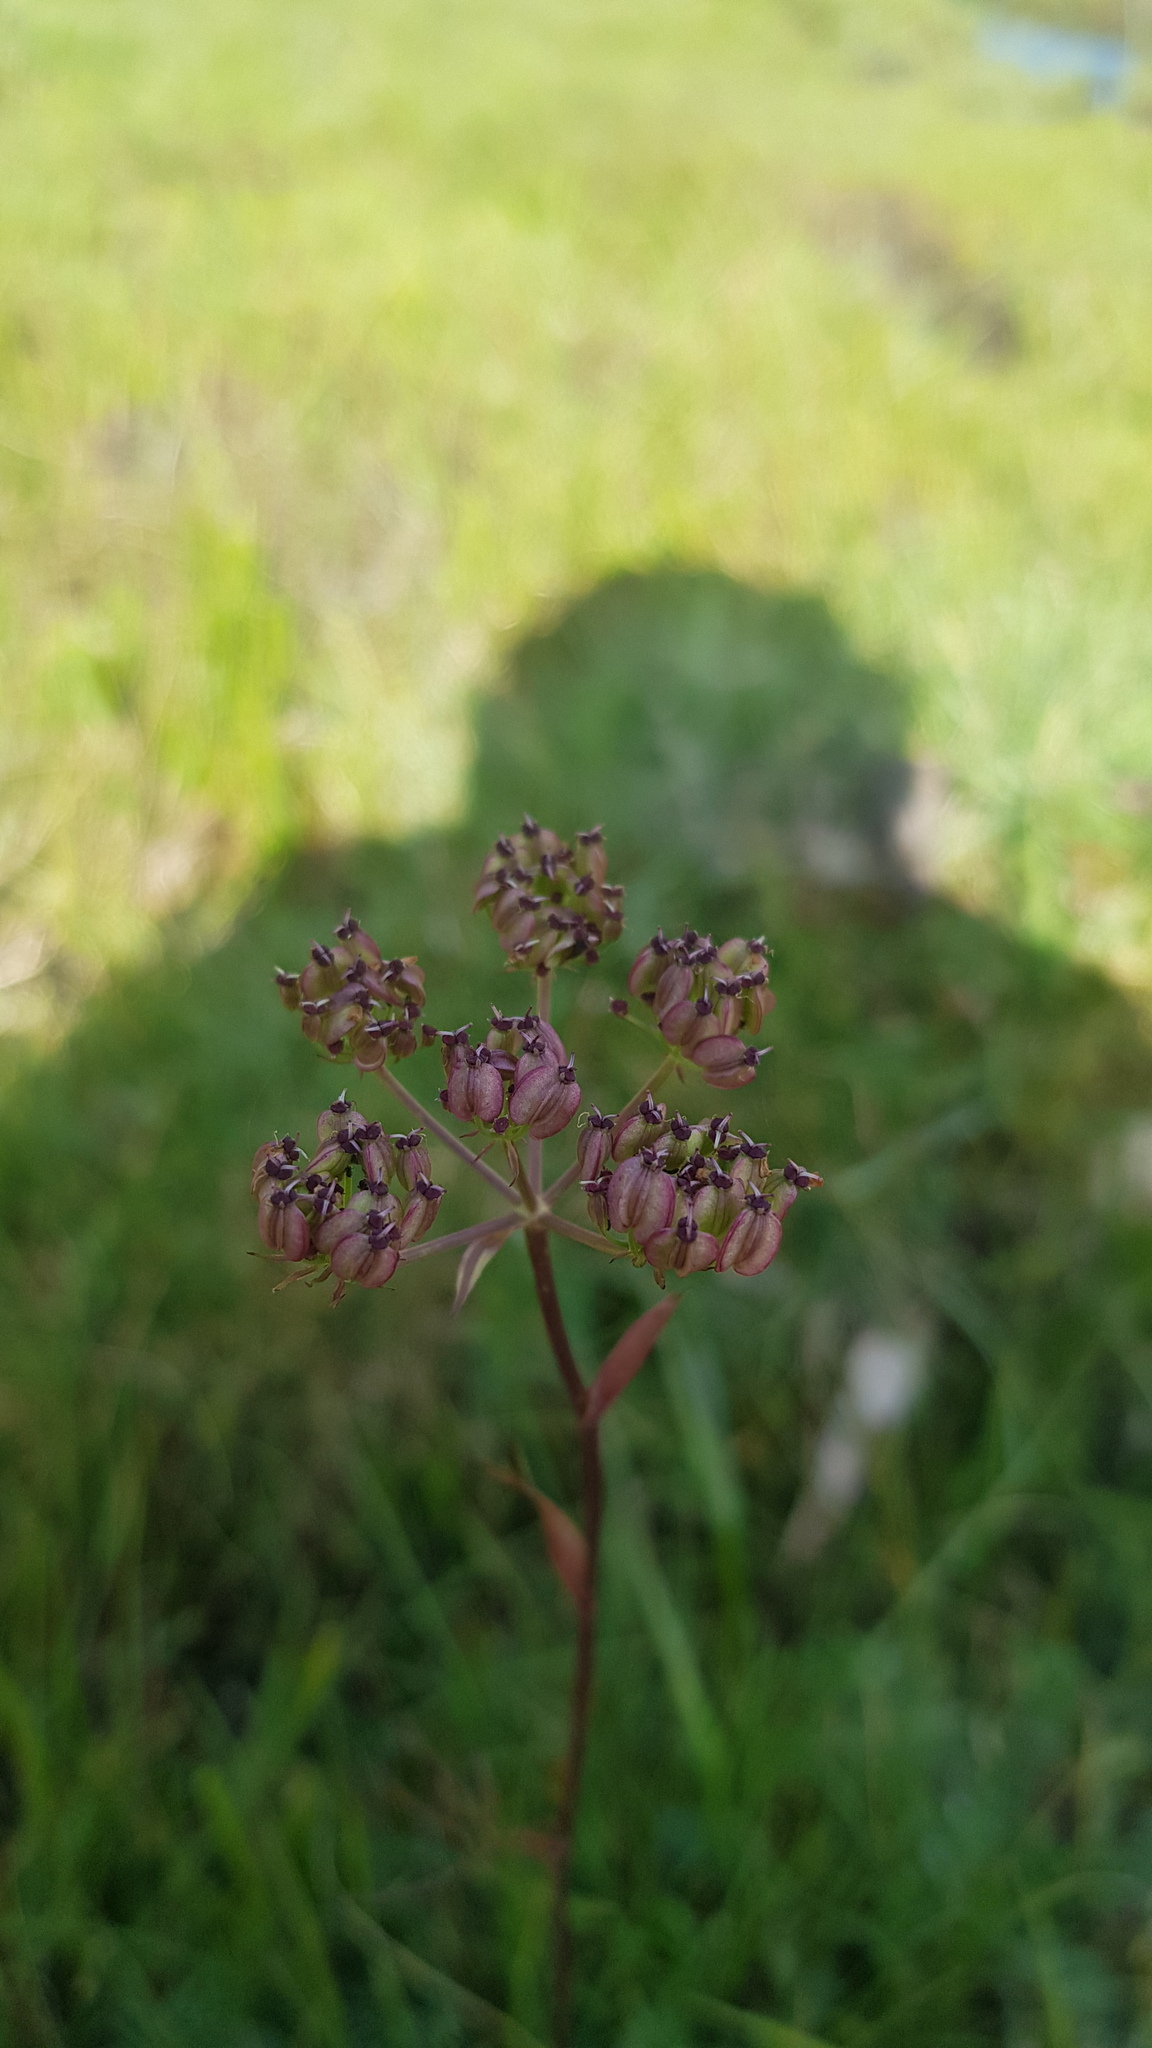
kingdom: Plantae
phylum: Tracheophyta
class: Magnoliopsida
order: Apiales
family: Apiaceae
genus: Ostericum
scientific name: Ostericum tenuifolium
